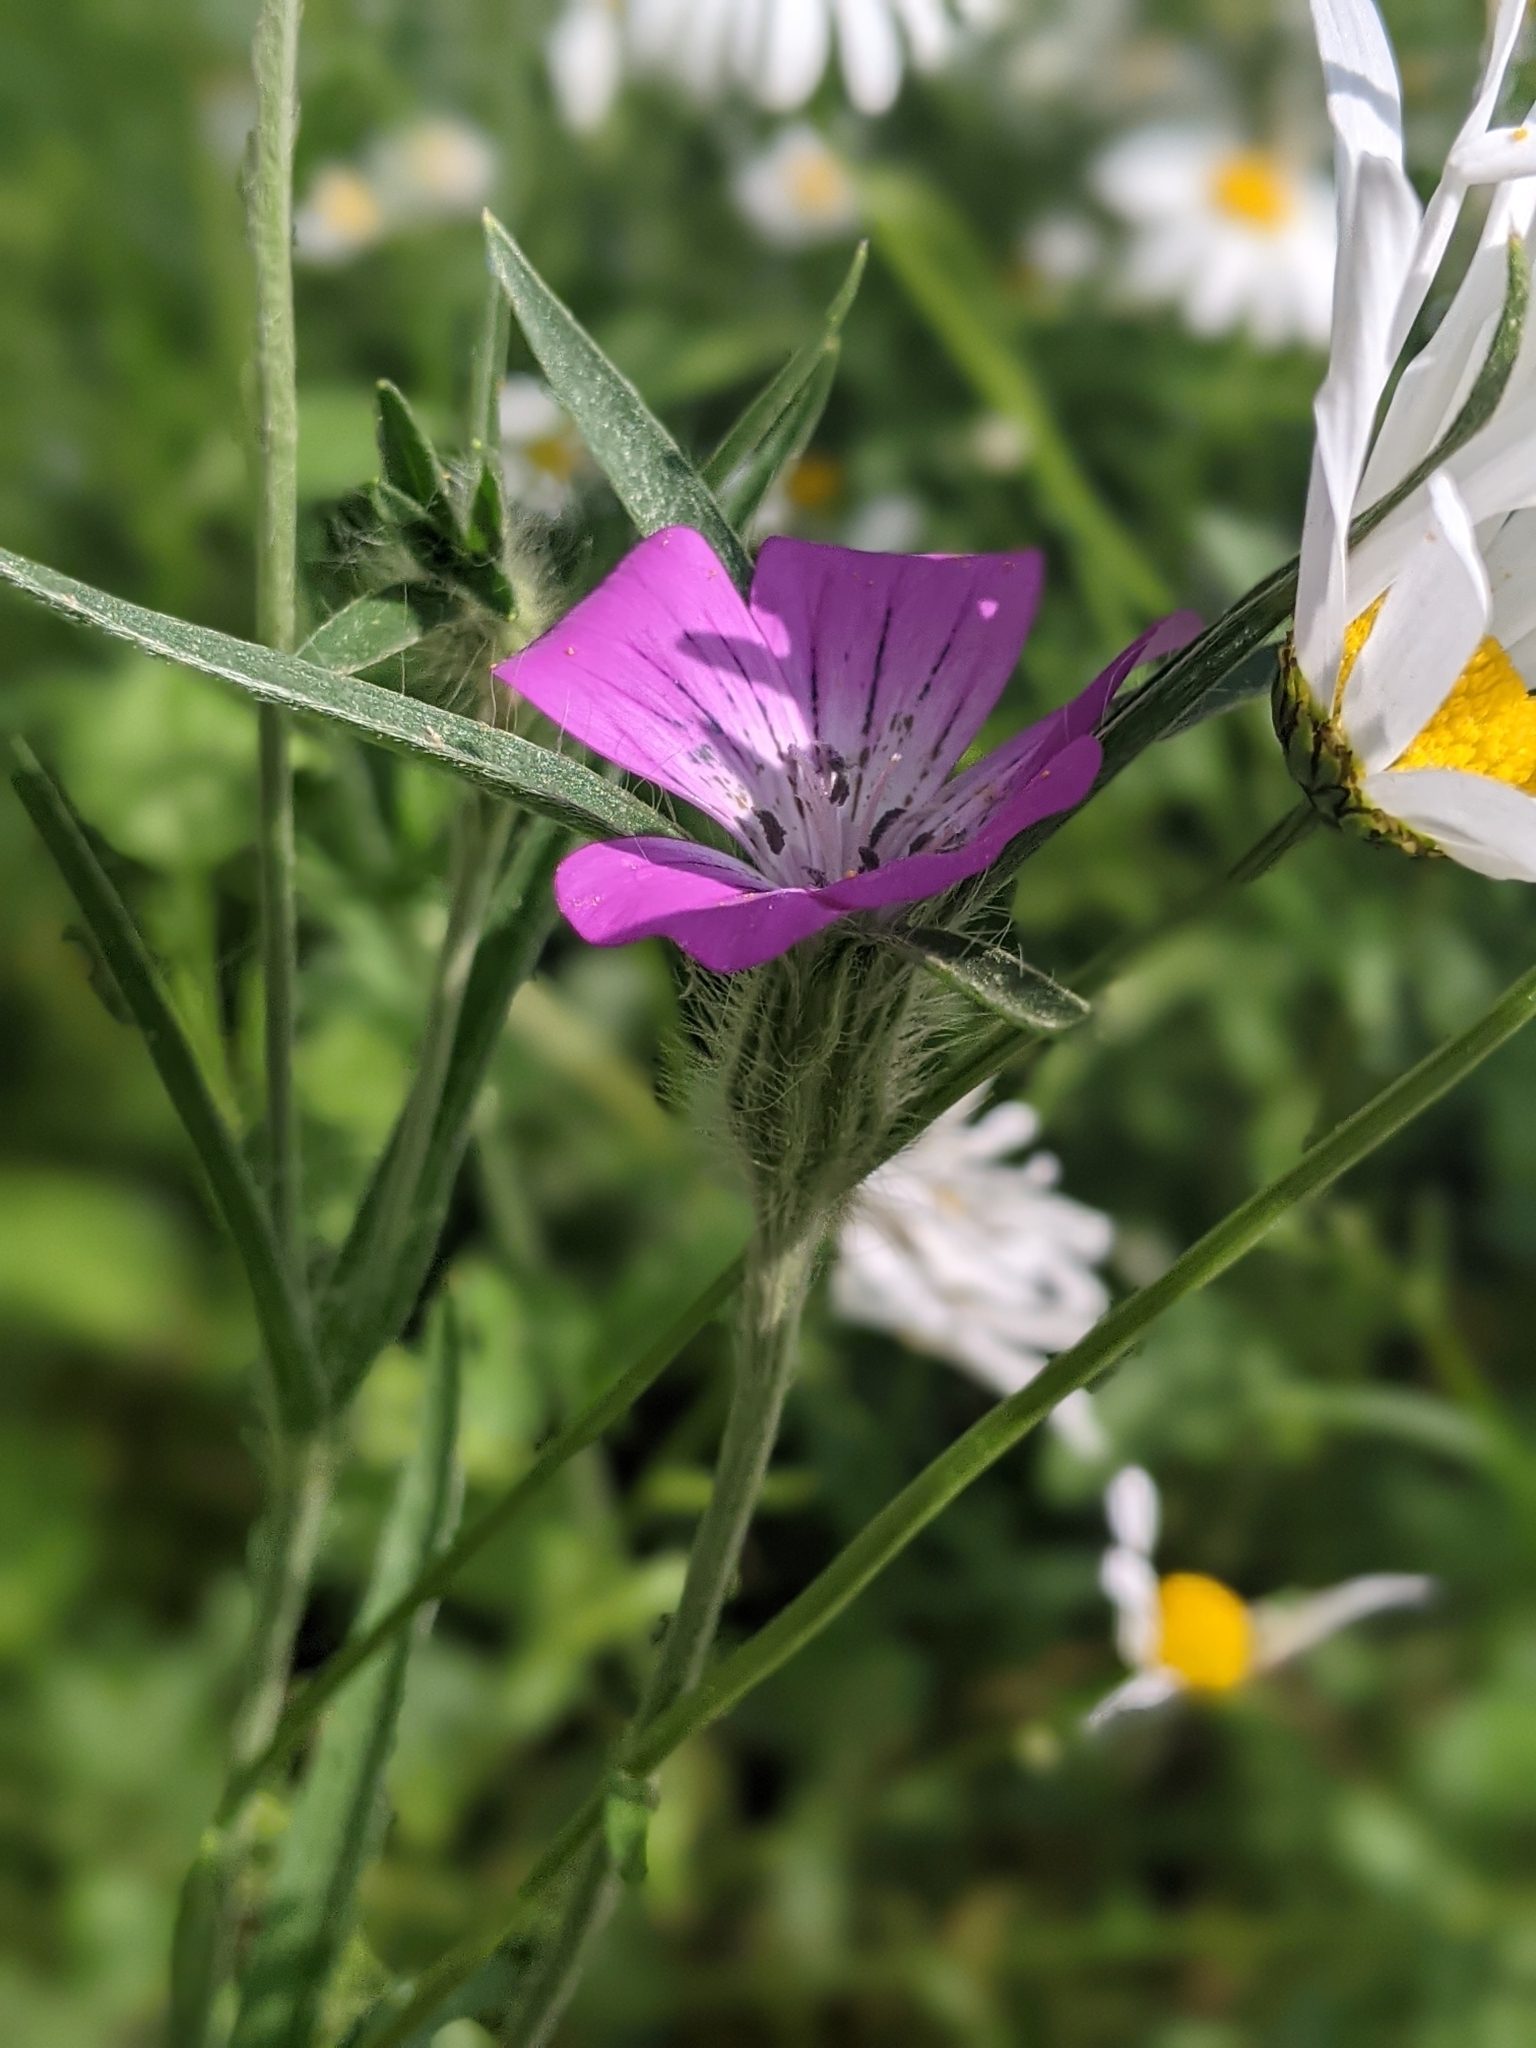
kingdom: Plantae
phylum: Tracheophyta
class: Magnoliopsida
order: Caryophyllales
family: Caryophyllaceae
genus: Agrostemma
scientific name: Agrostemma githago
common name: Common corncockle
